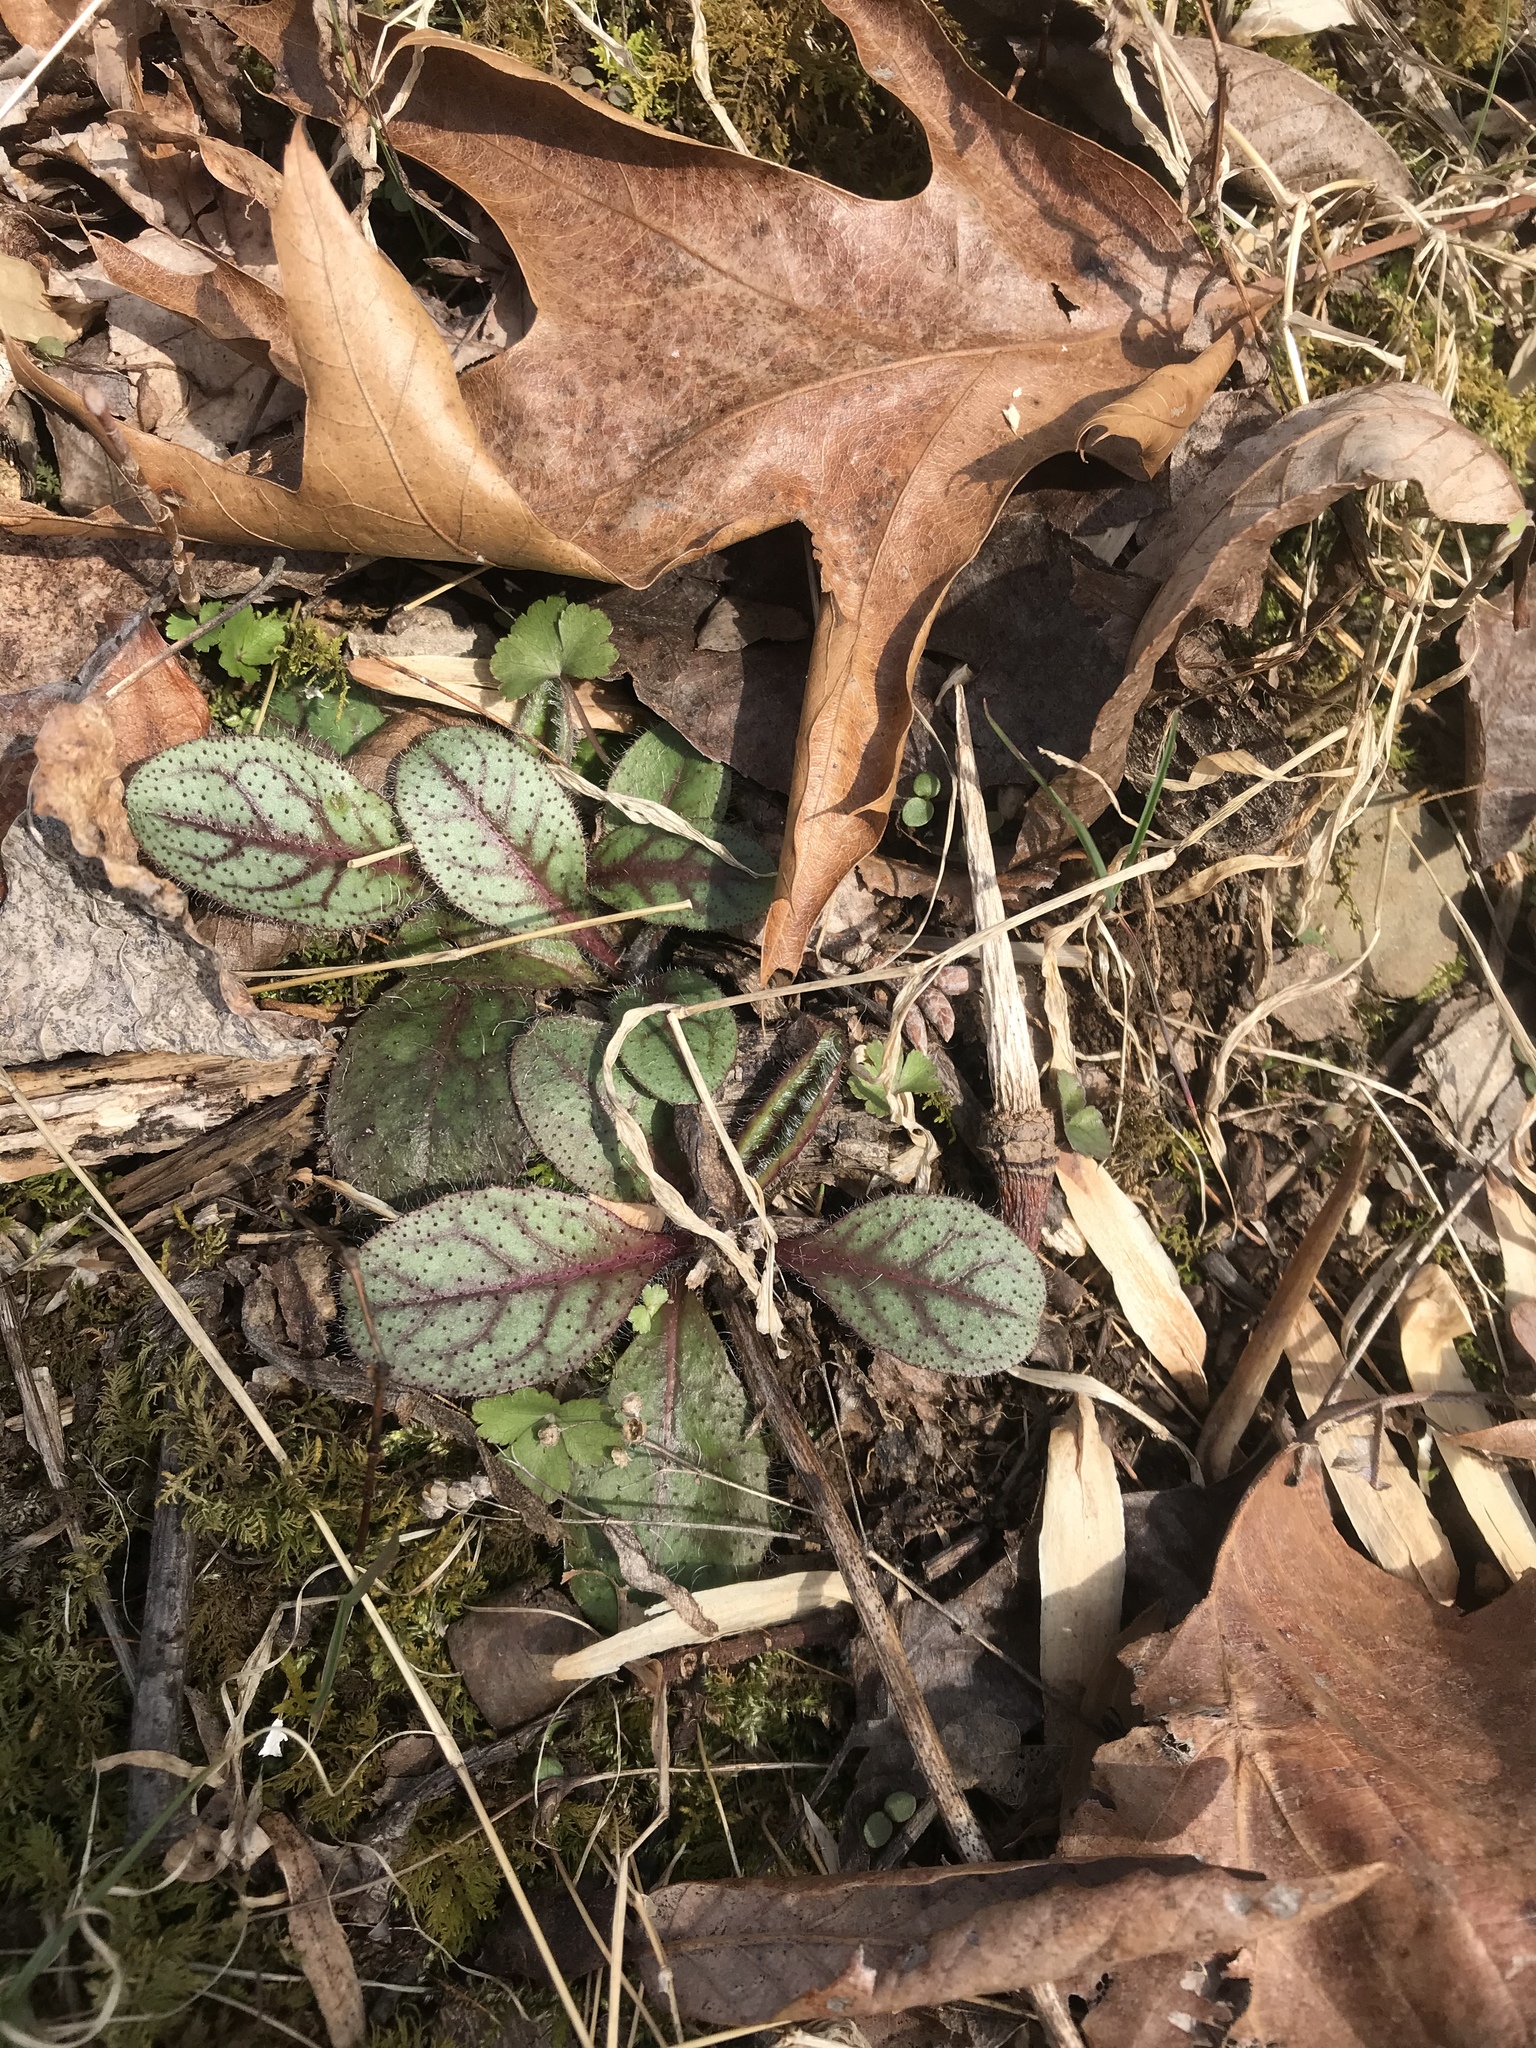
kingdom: Plantae
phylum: Tracheophyta
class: Magnoliopsida
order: Asterales
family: Asteraceae
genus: Hieracium
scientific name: Hieracium venosum
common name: Rattlesnake hawkweed
